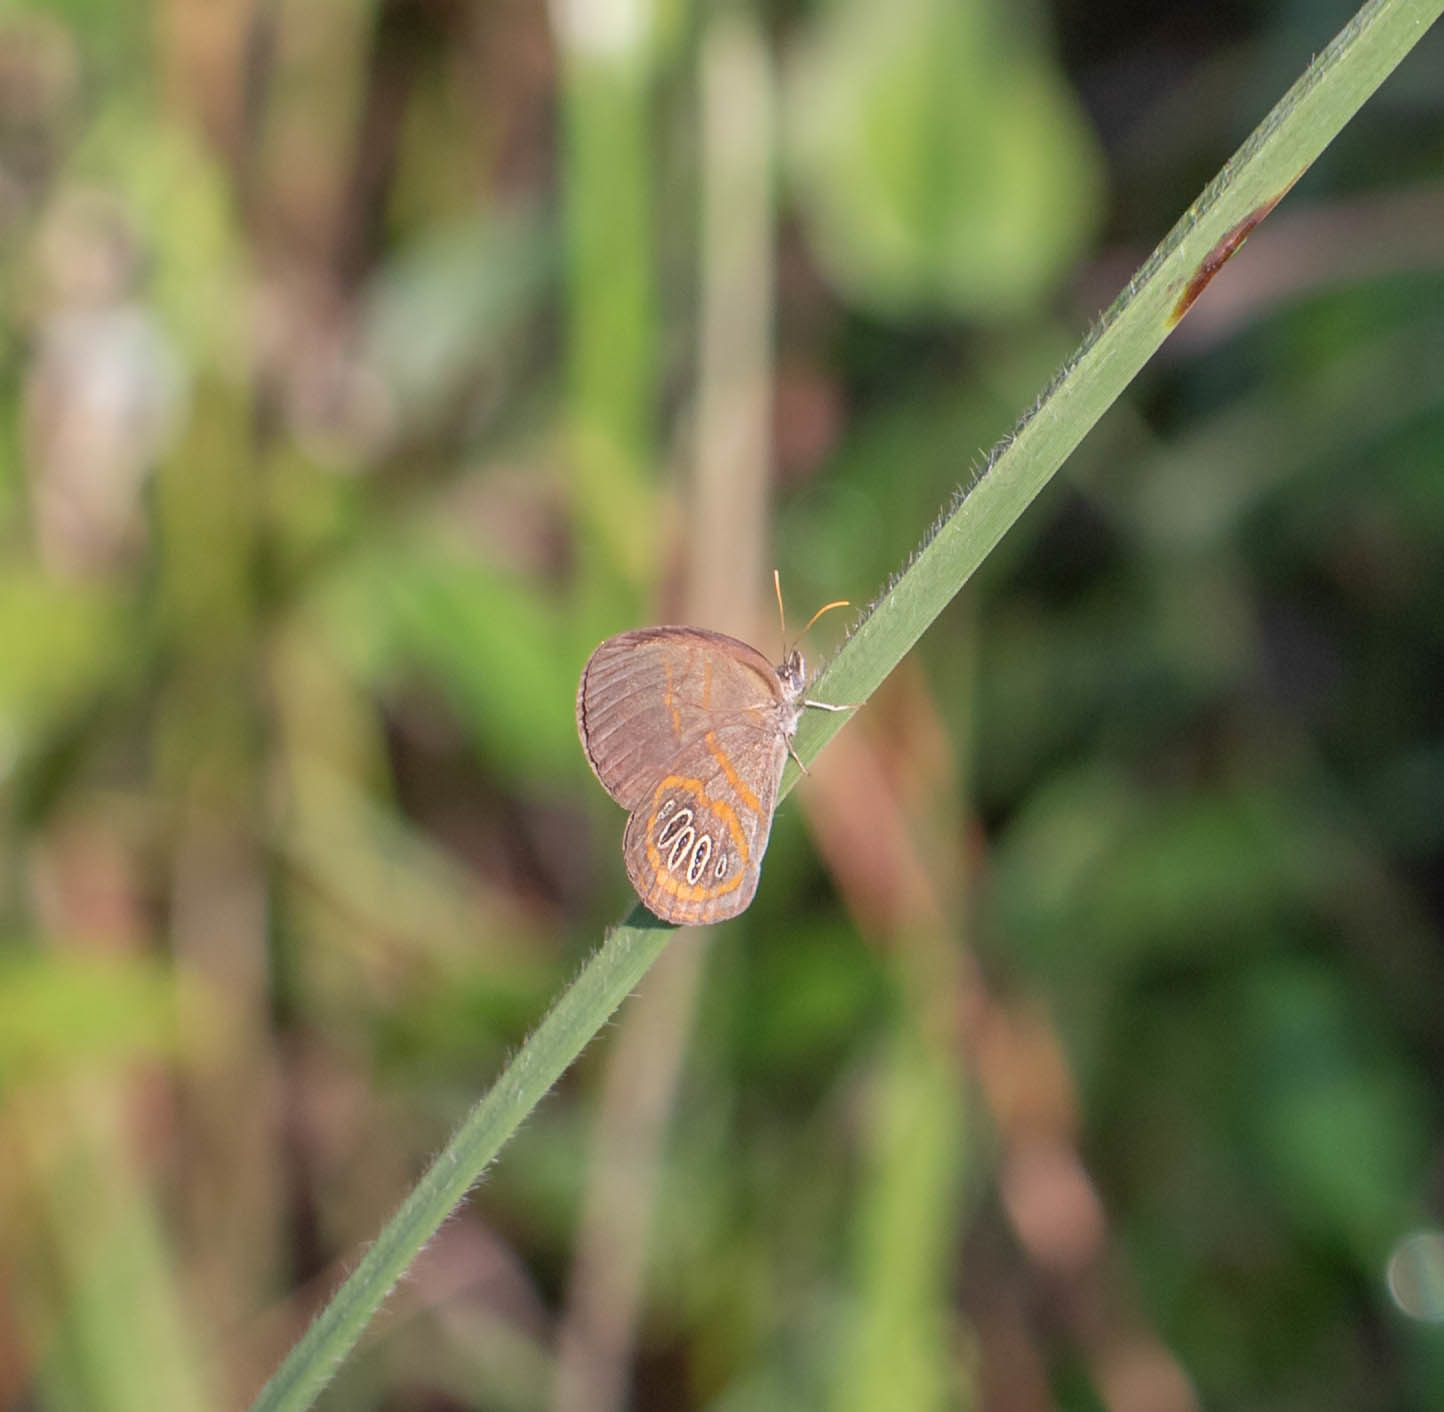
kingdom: Animalia
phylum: Arthropoda
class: Insecta
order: Lepidoptera
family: Nymphalidae
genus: Euptychia
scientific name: Euptychia phocion
